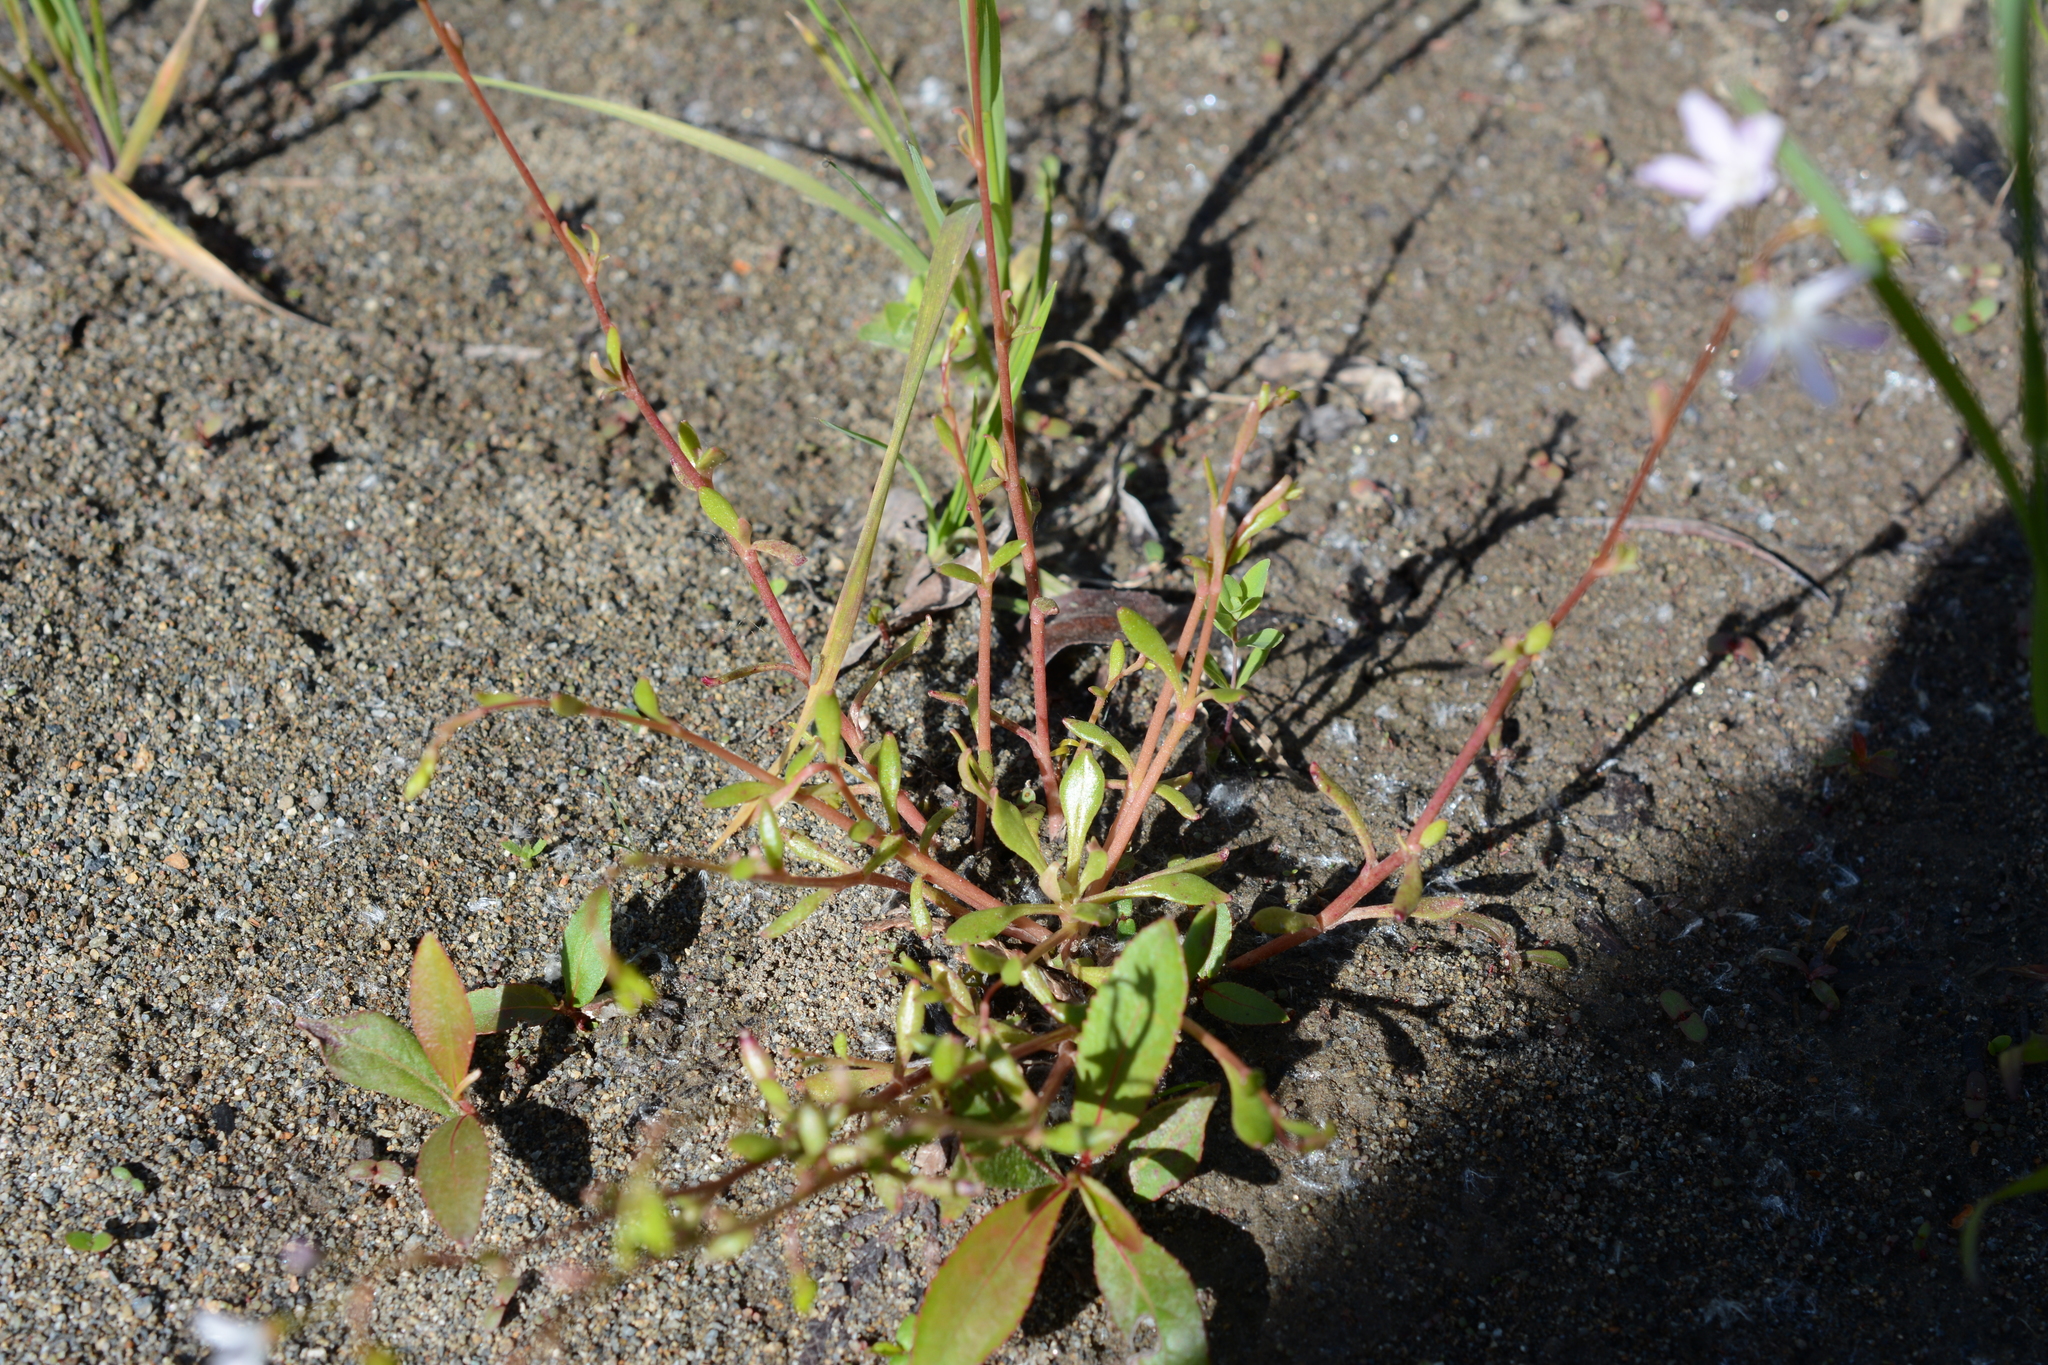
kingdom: Plantae
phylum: Tracheophyta
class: Magnoliopsida
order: Caryophyllales
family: Montiaceae
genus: Montia
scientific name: Montia parvifolia
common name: Small-leaved blinks
